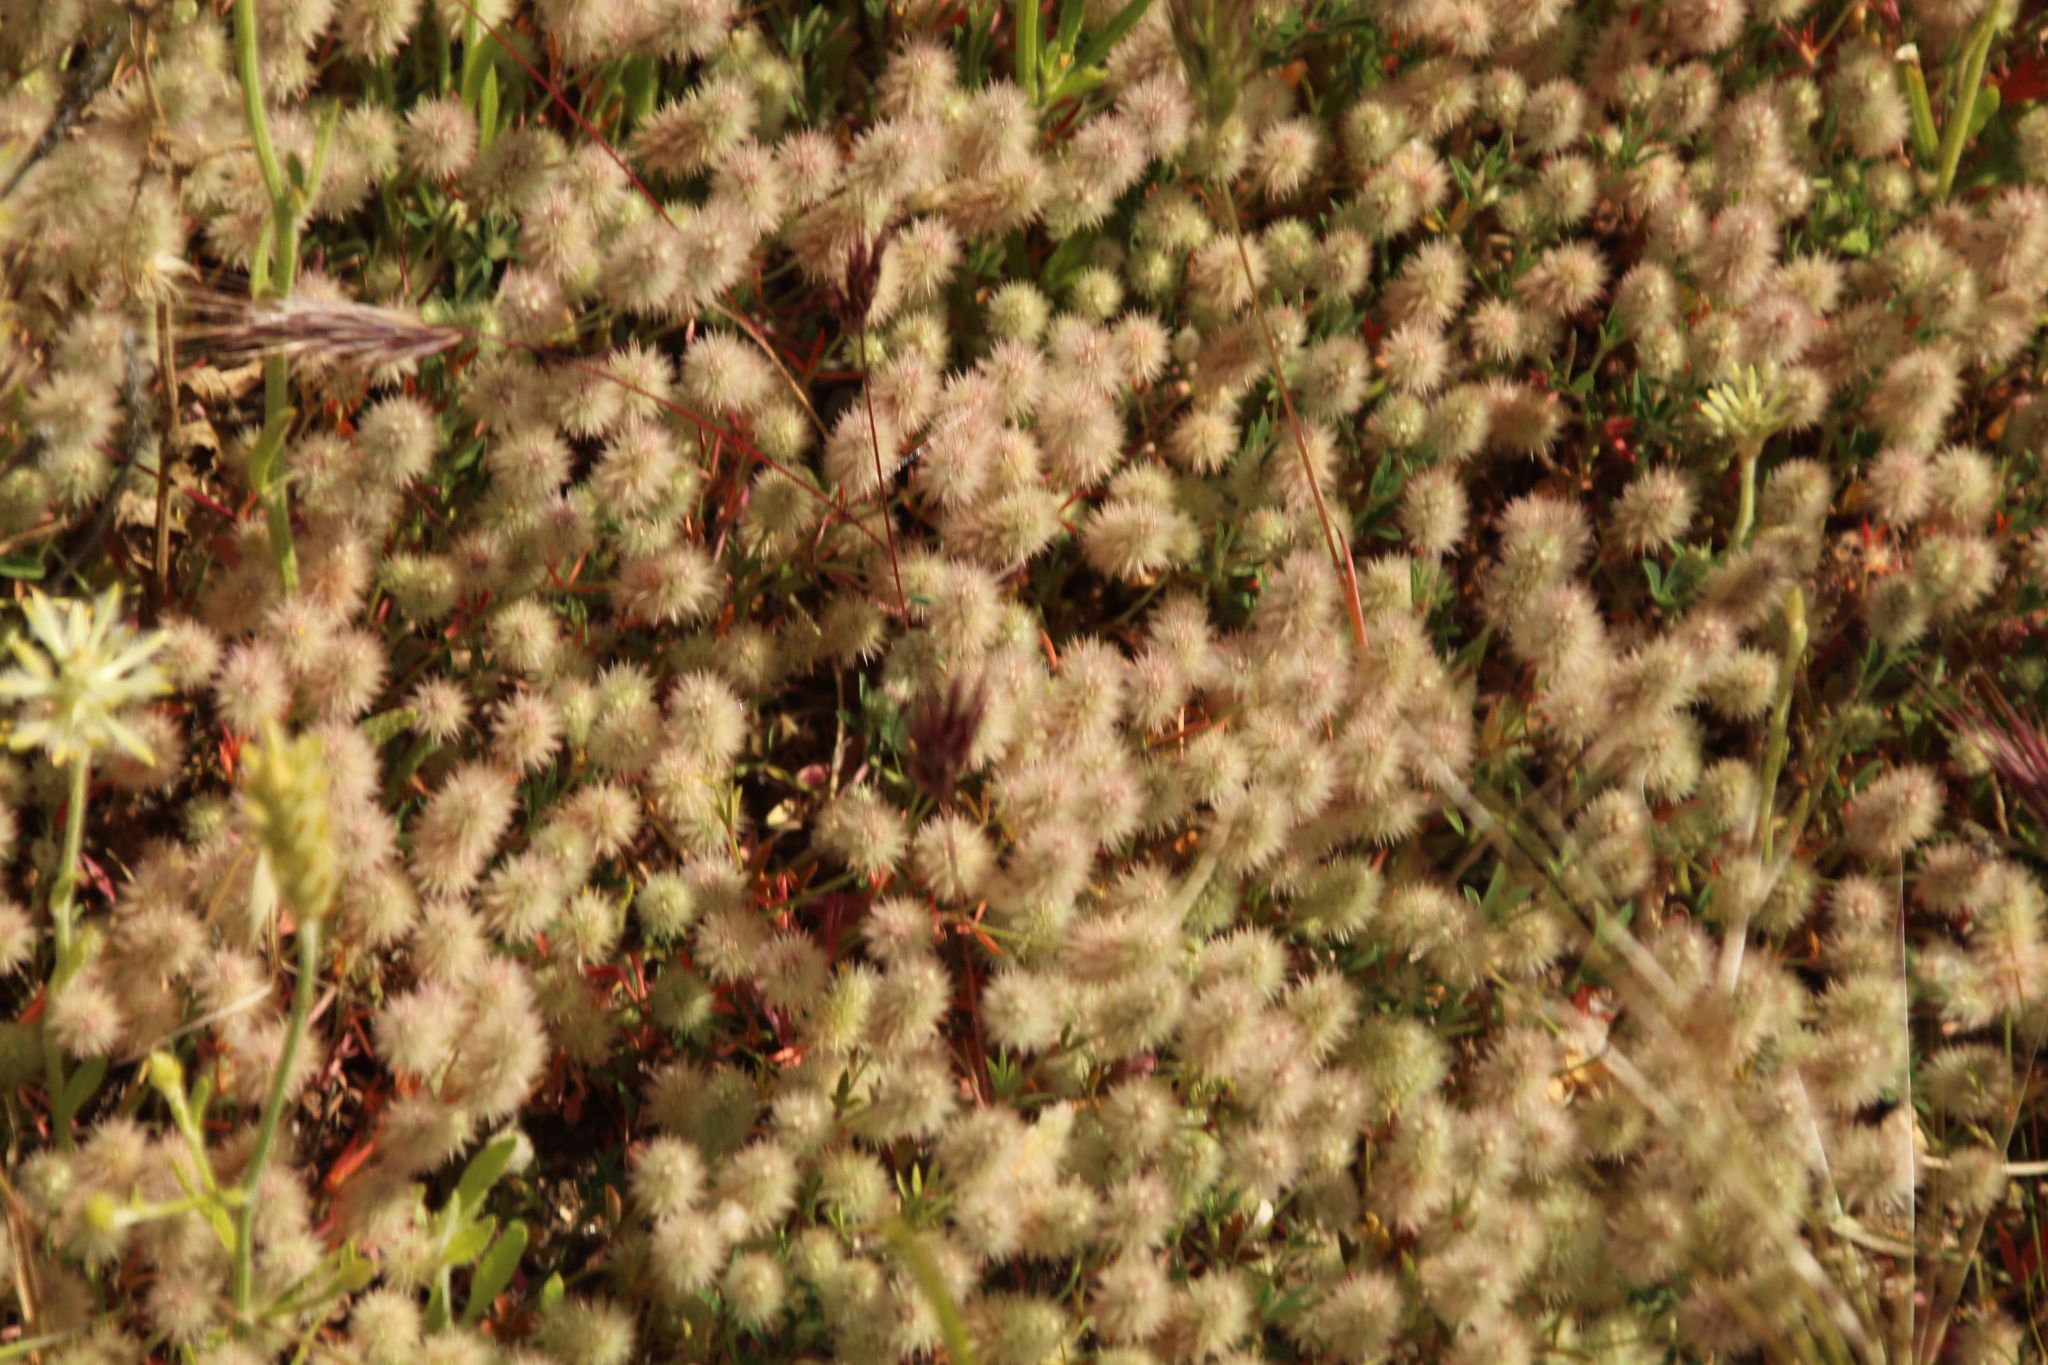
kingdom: Plantae
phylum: Tracheophyta
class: Magnoliopsida
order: Fabales
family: Fabaceae
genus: Trifolium
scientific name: Trifolium arvense
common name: Hare's-foot clover
